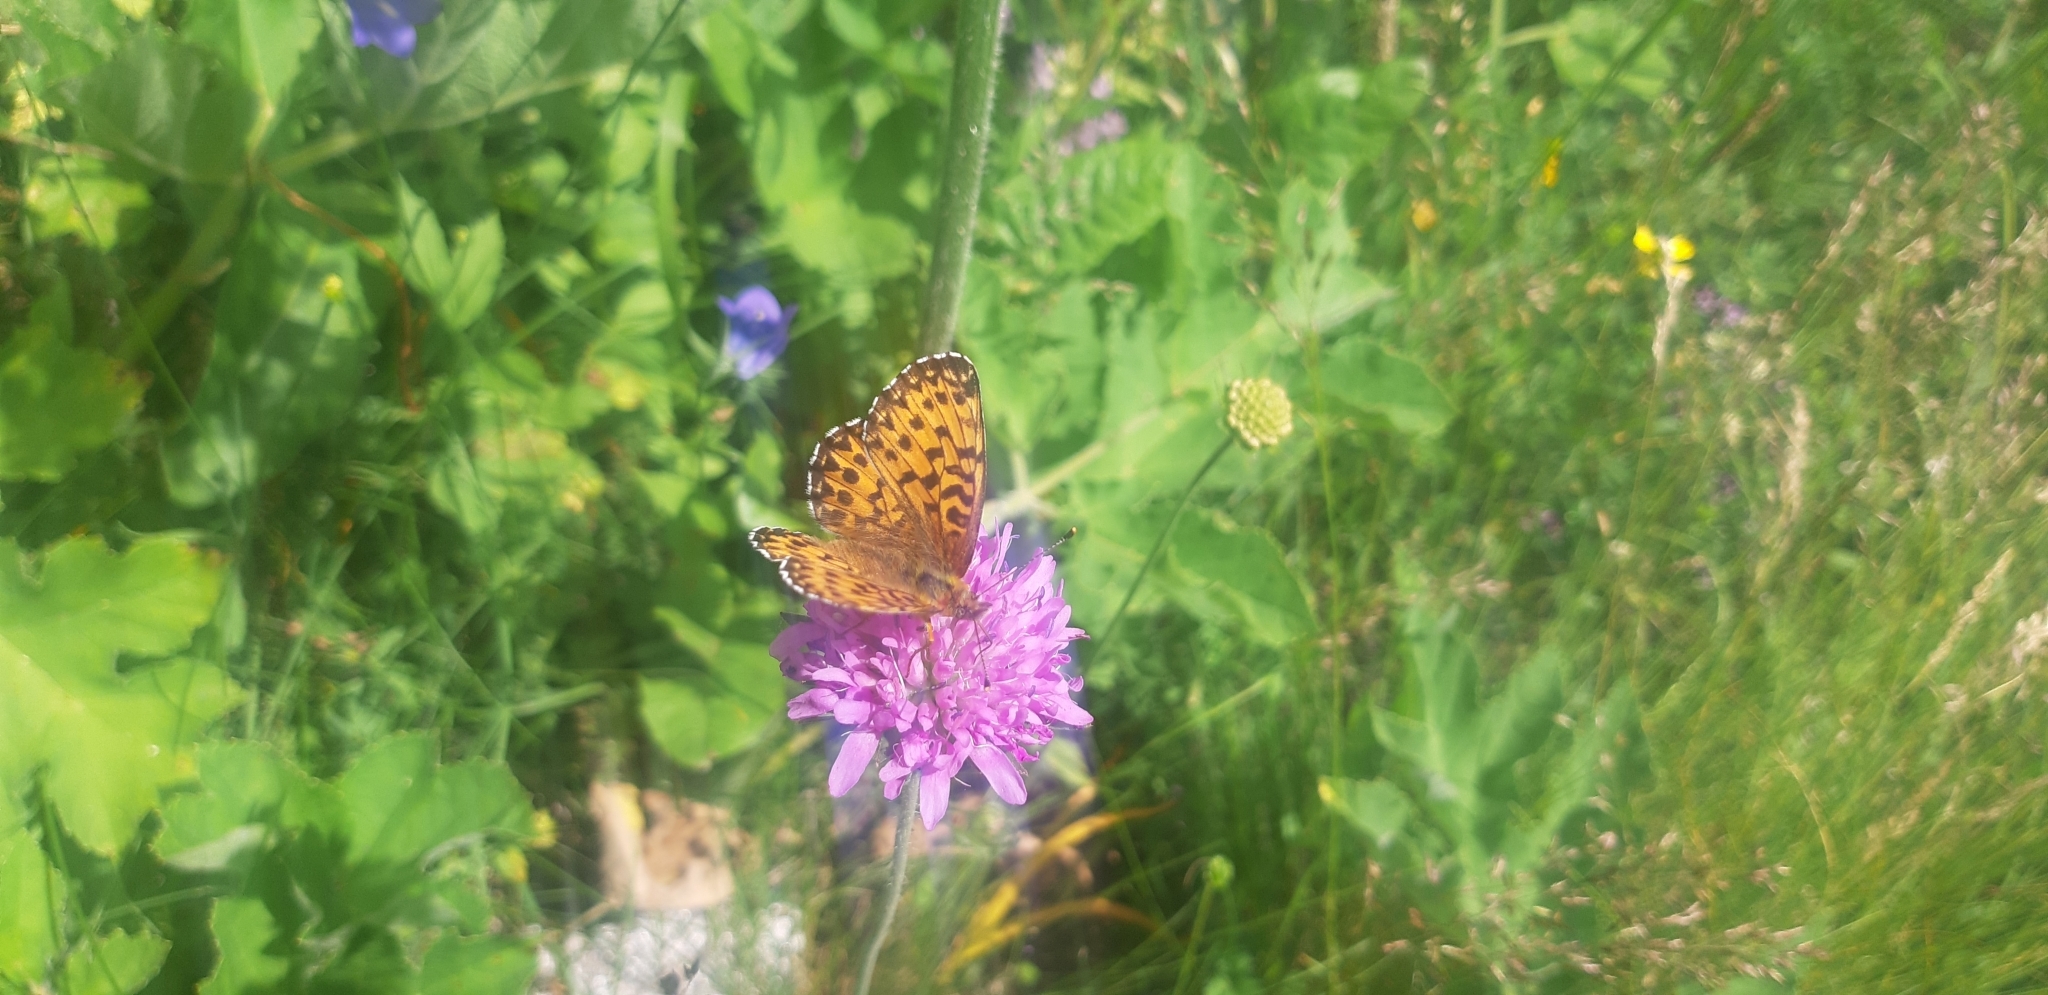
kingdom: Animalia
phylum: Arthropoda
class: Insecta
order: Lepidoptera
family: Nymphalidae
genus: Boloria
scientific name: Boloria titania
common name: Titania's fritillary
